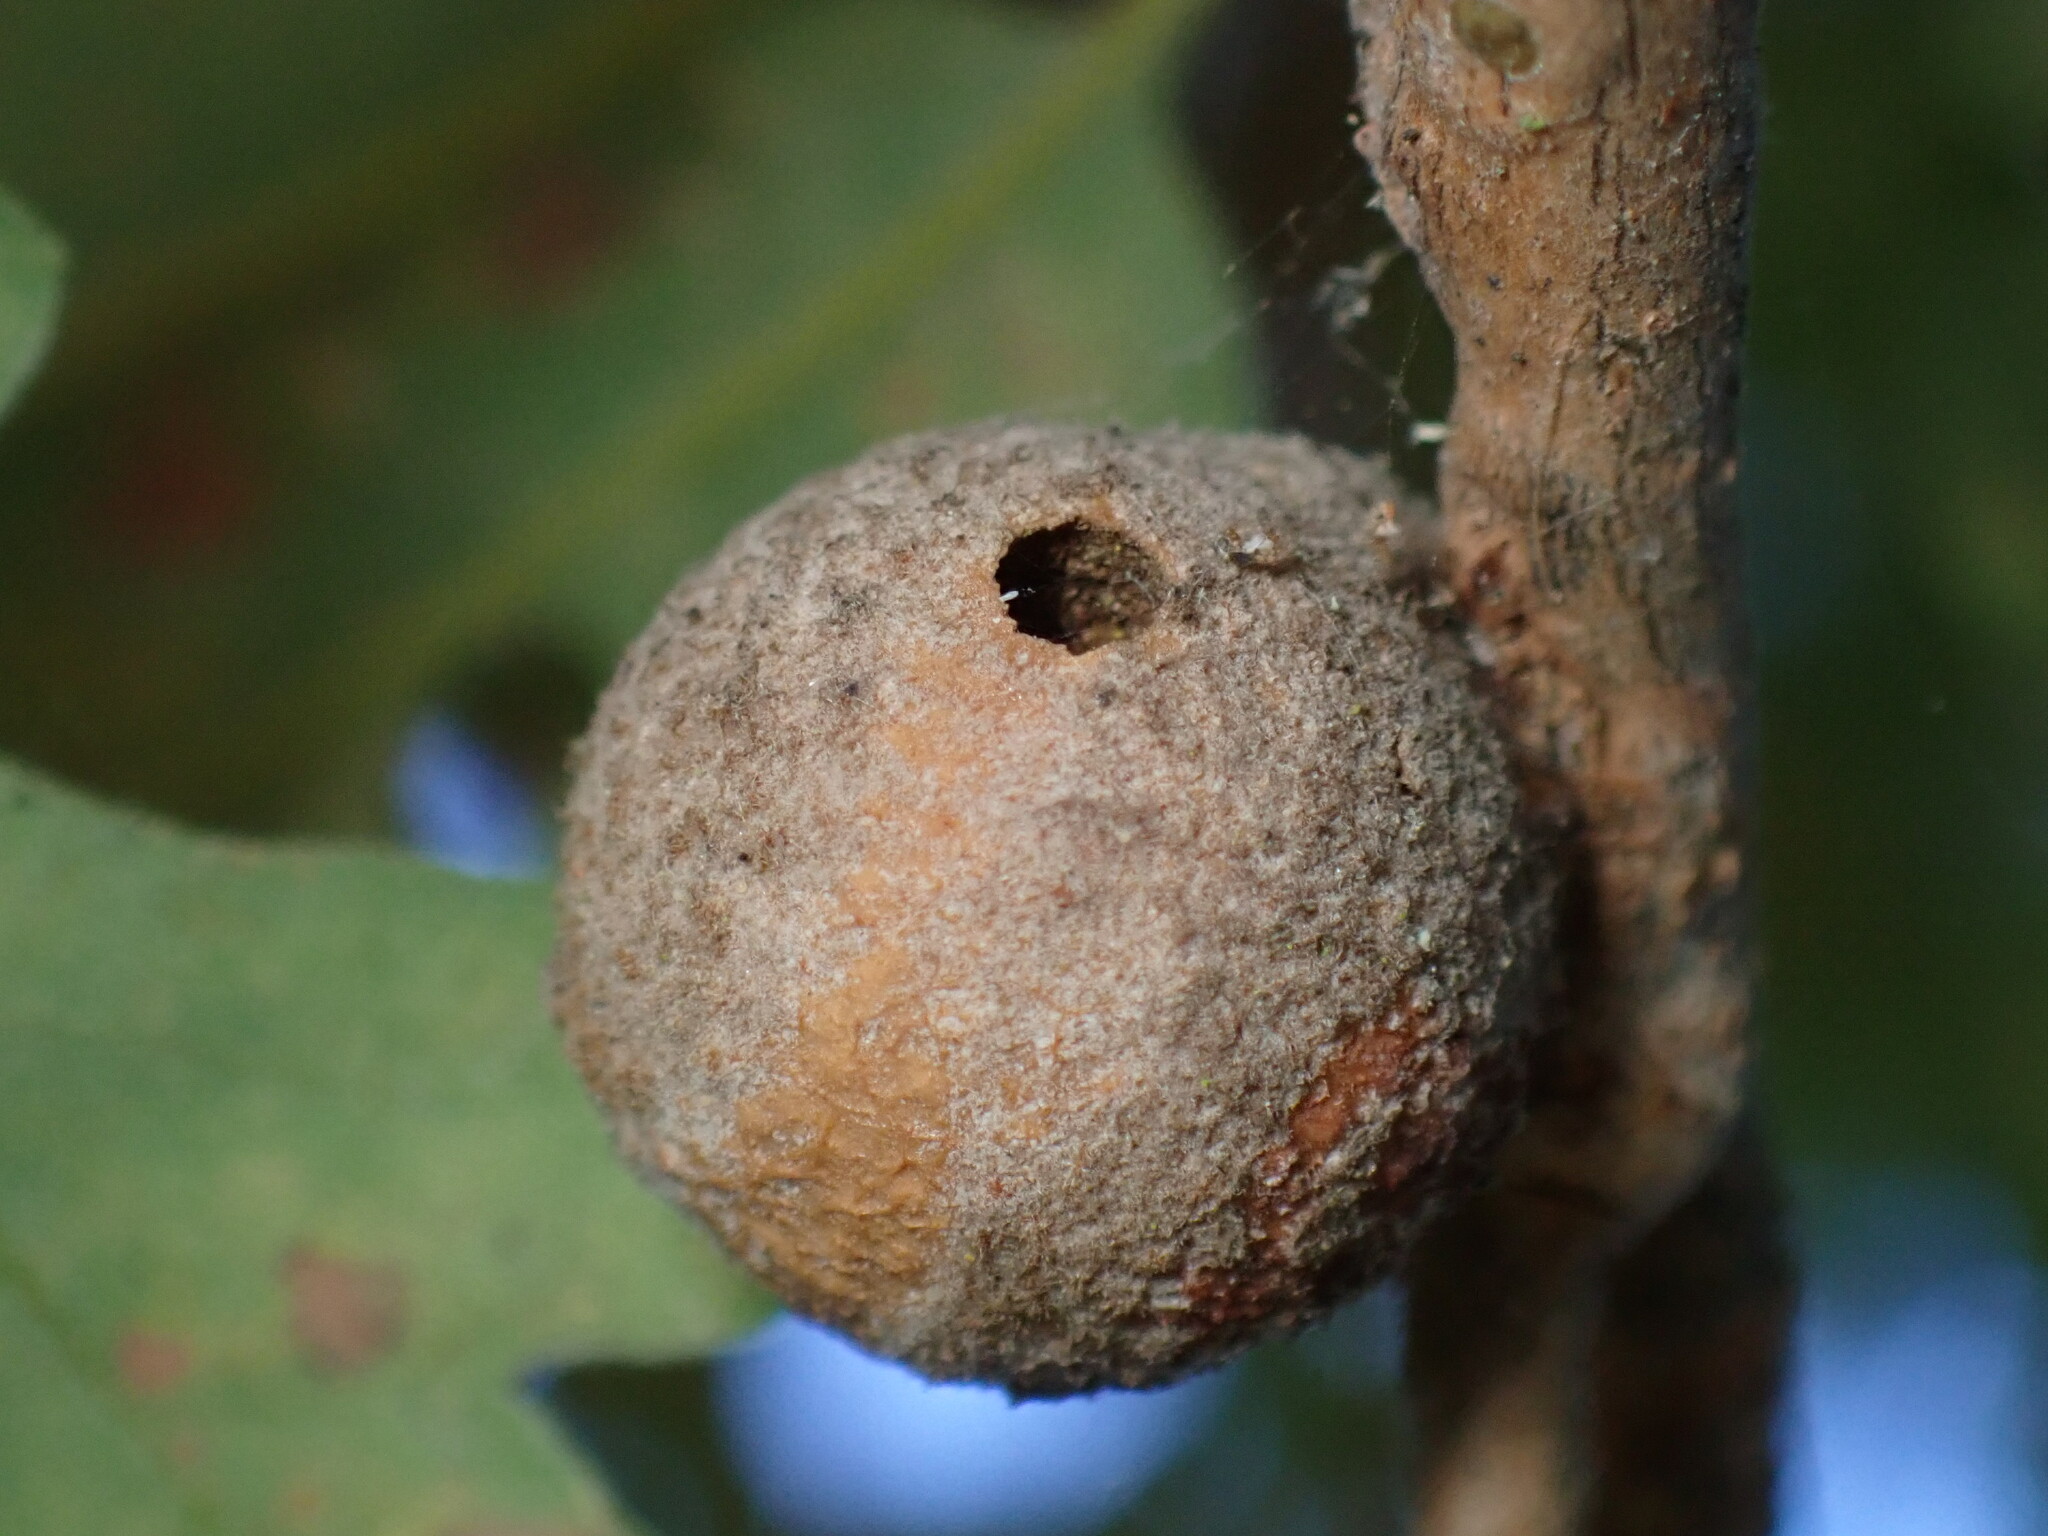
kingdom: Animalia
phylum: Arthropoda
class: Insecta
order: Hymenoptera
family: Cynipidae
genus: Burnettweldia
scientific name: Burnettweldia
